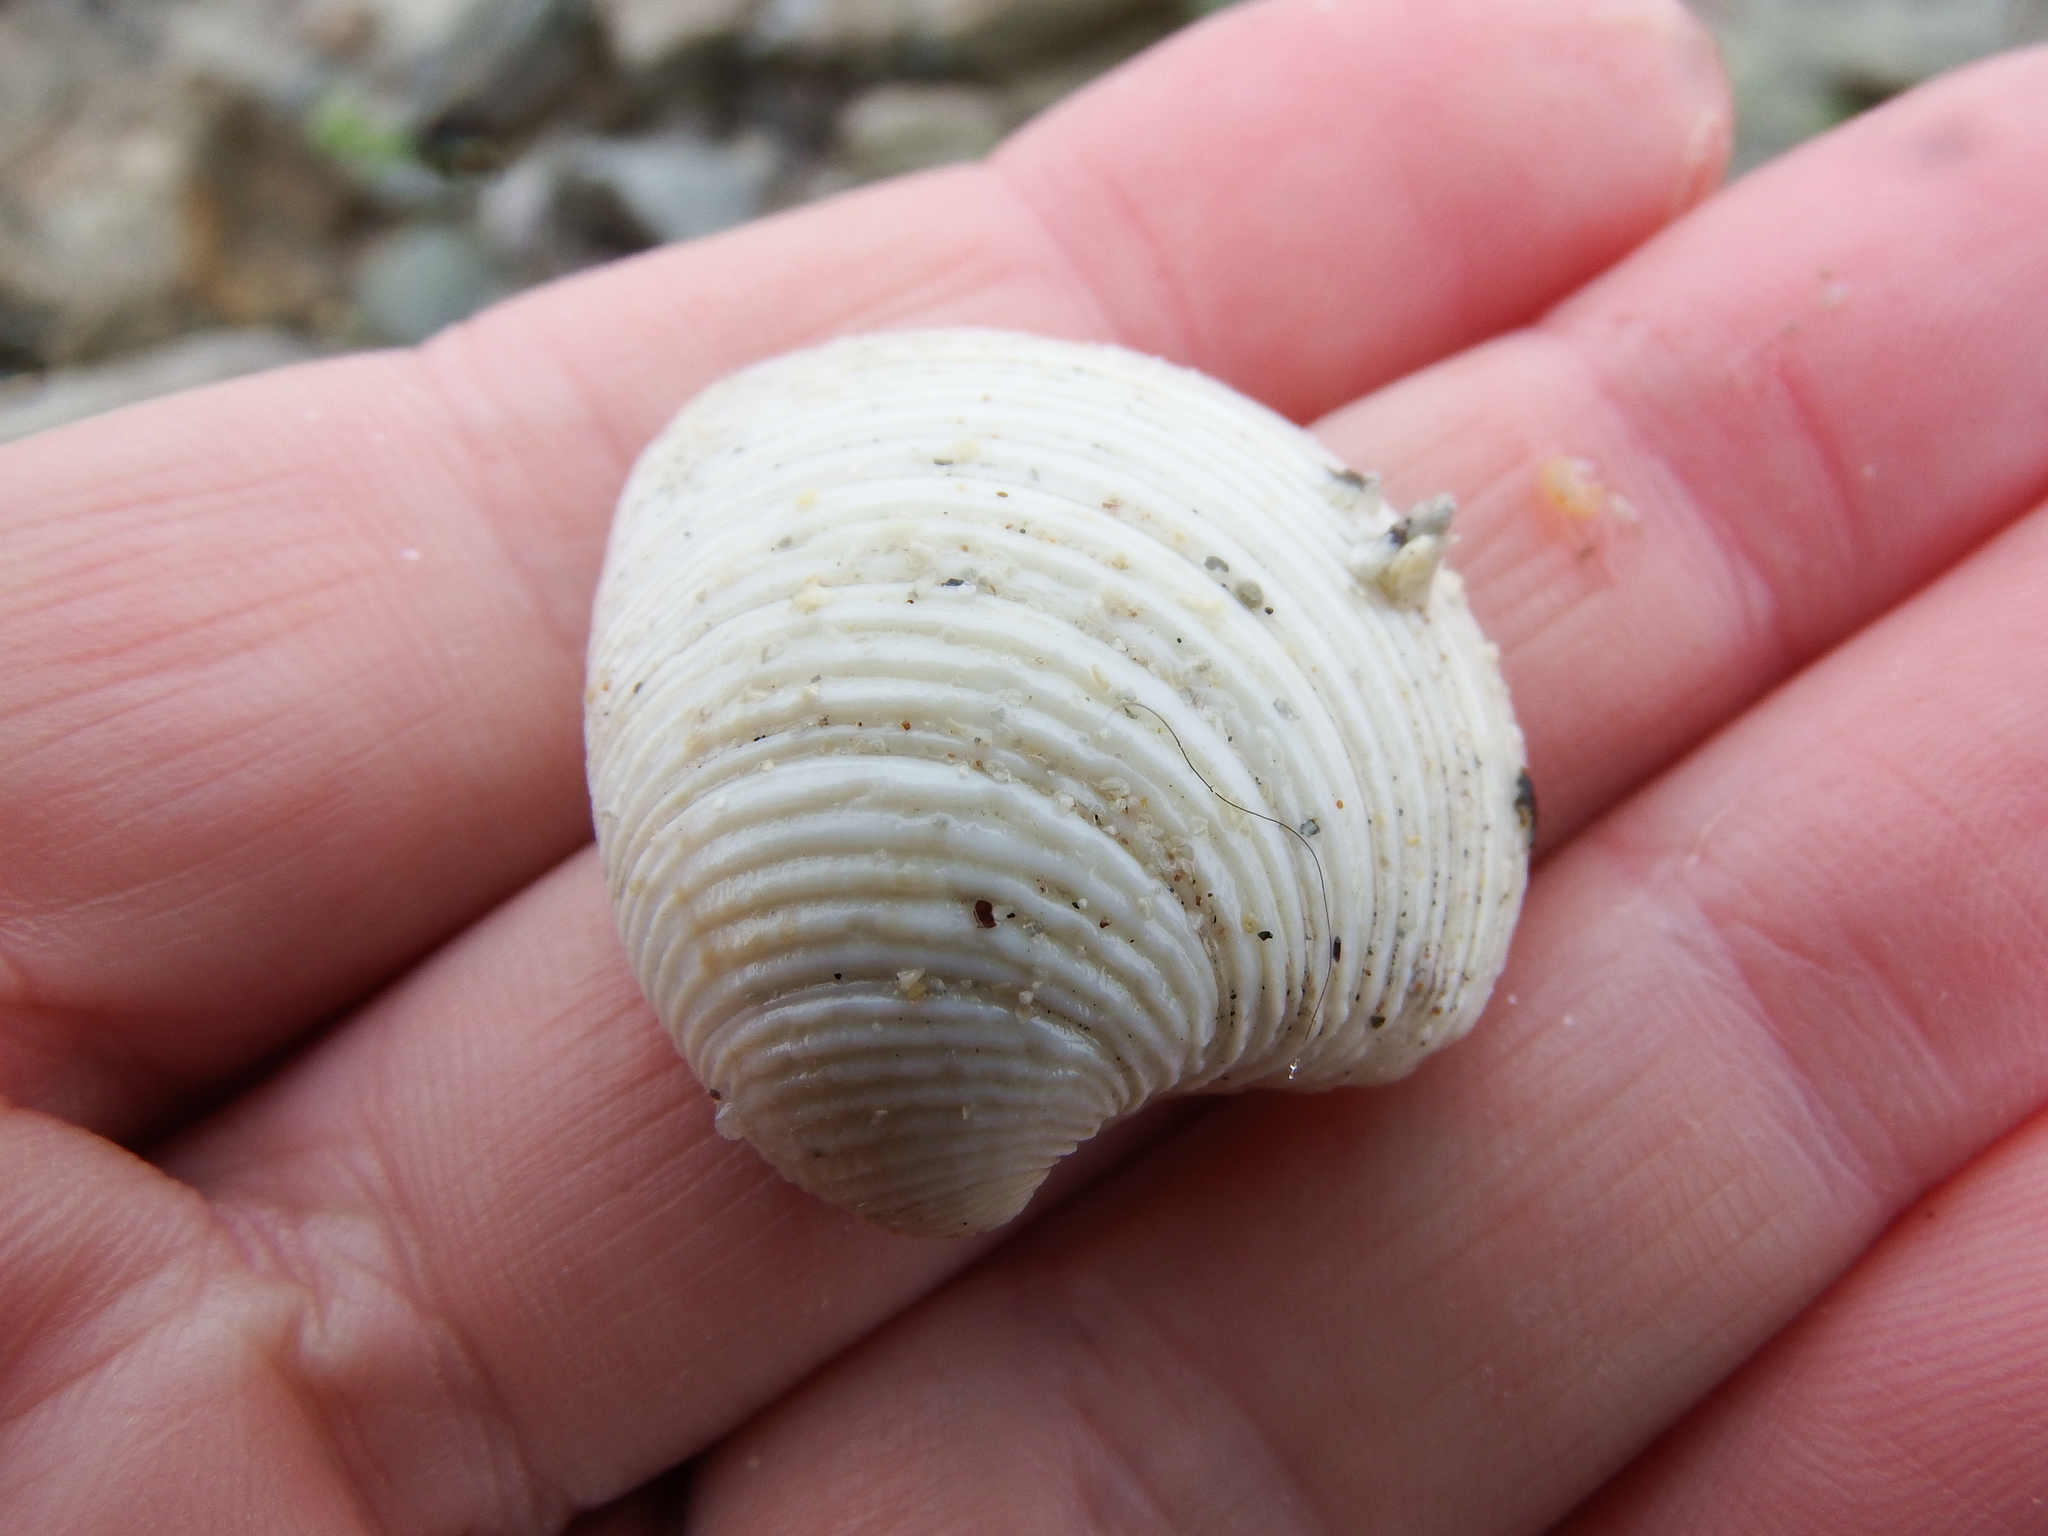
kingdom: Animalia
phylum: Mollusca
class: Bivalvia
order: Venerida
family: Veneridae
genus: Chamelea
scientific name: Chamelea striatula
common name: Striped venus
